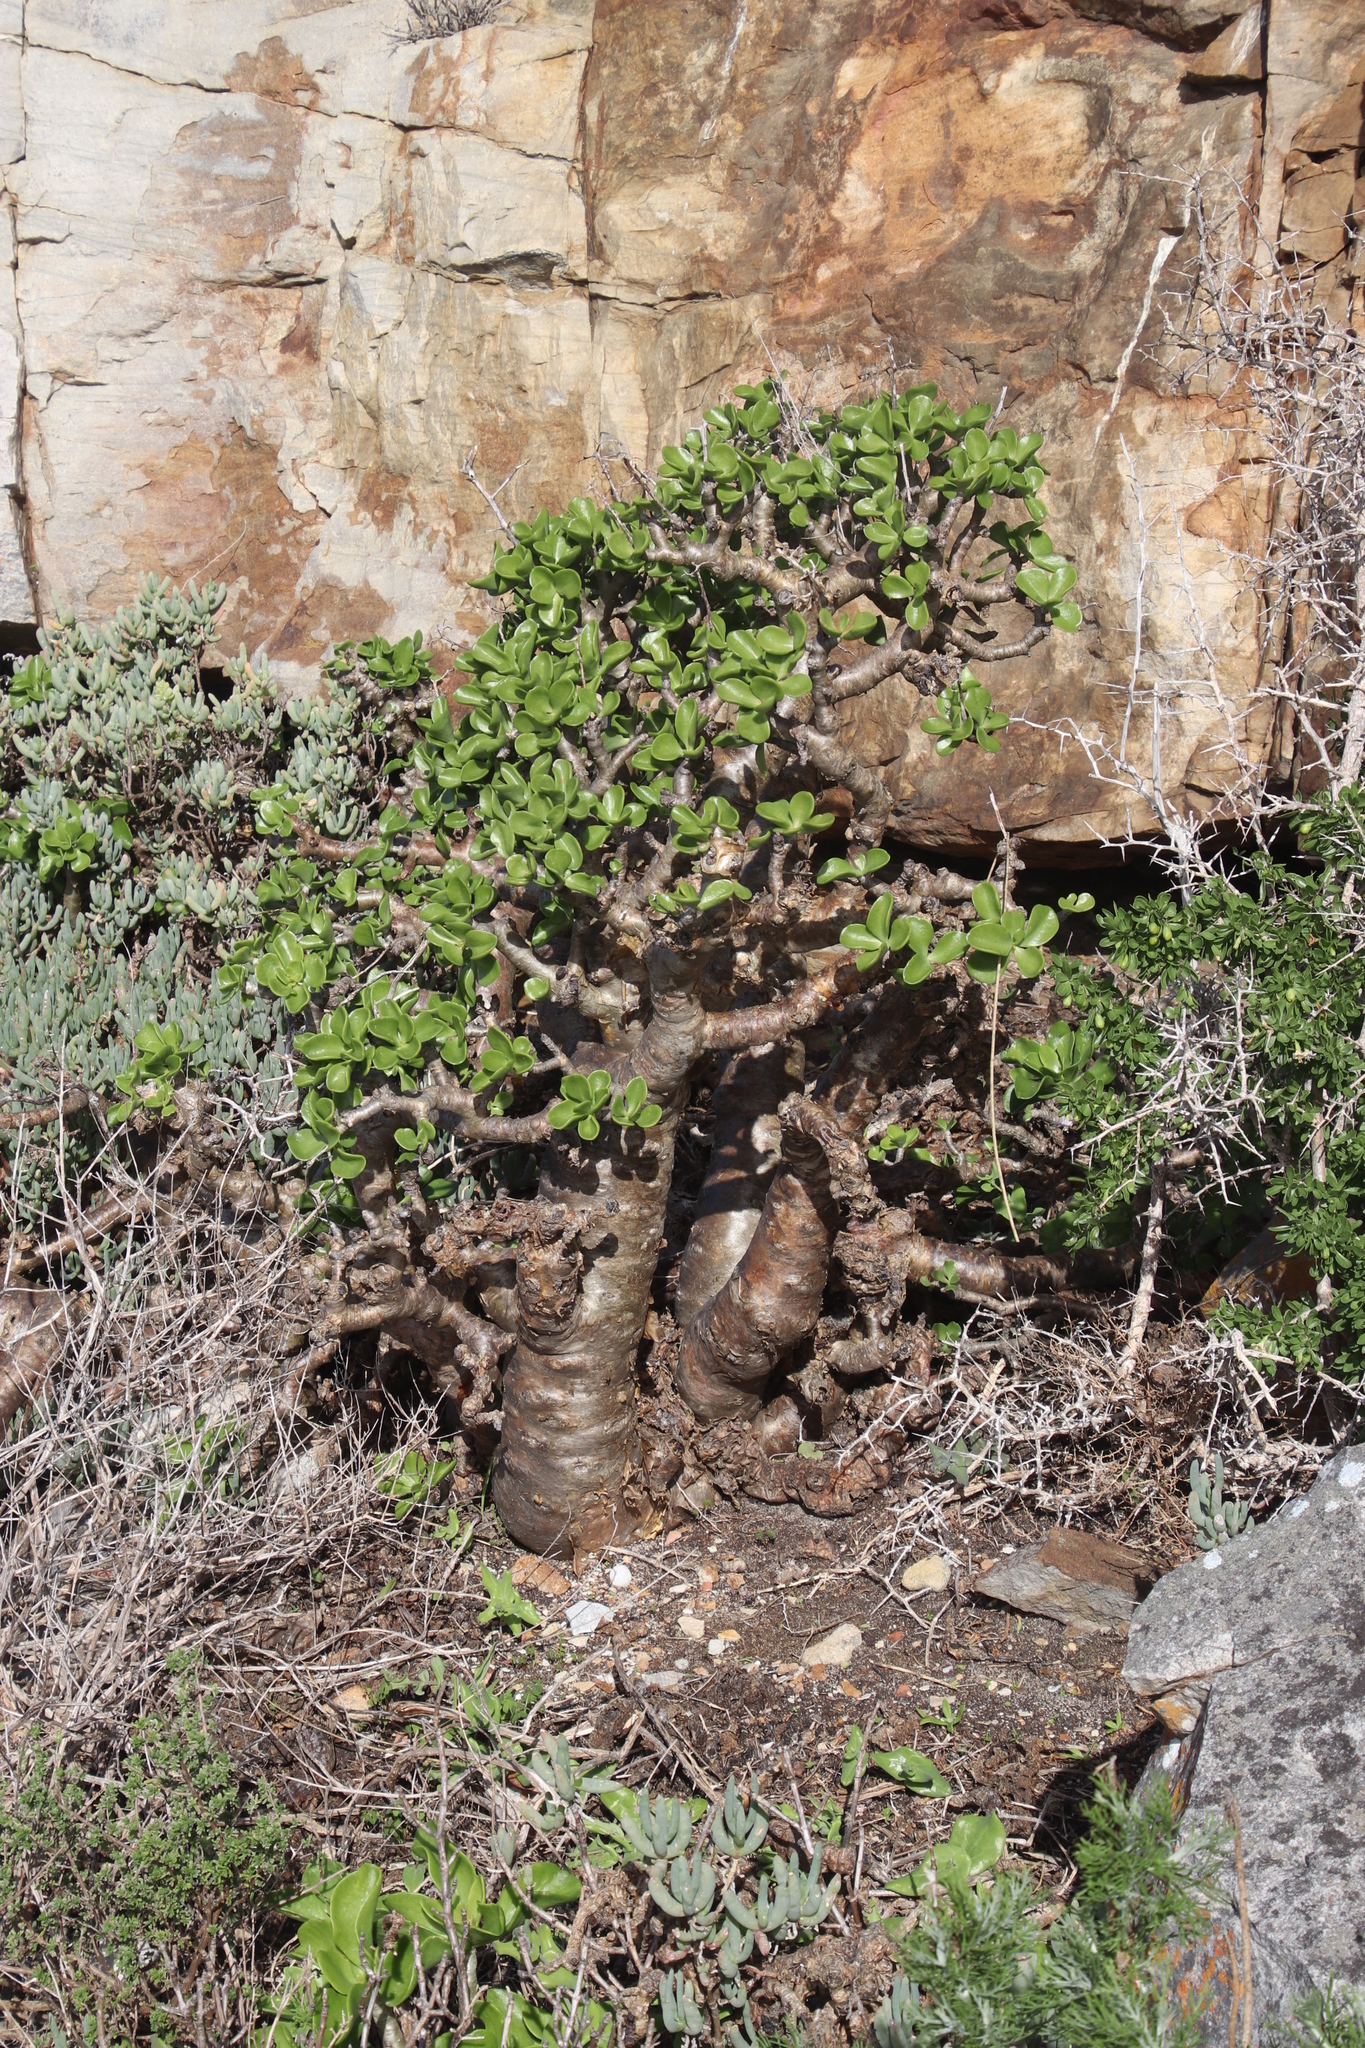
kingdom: Plantae
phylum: Tracheophyta
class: Magnoliopsida
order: Saxifragales
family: Crassulaceae
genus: Tylecodon
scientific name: Tylecodon paniculatus
